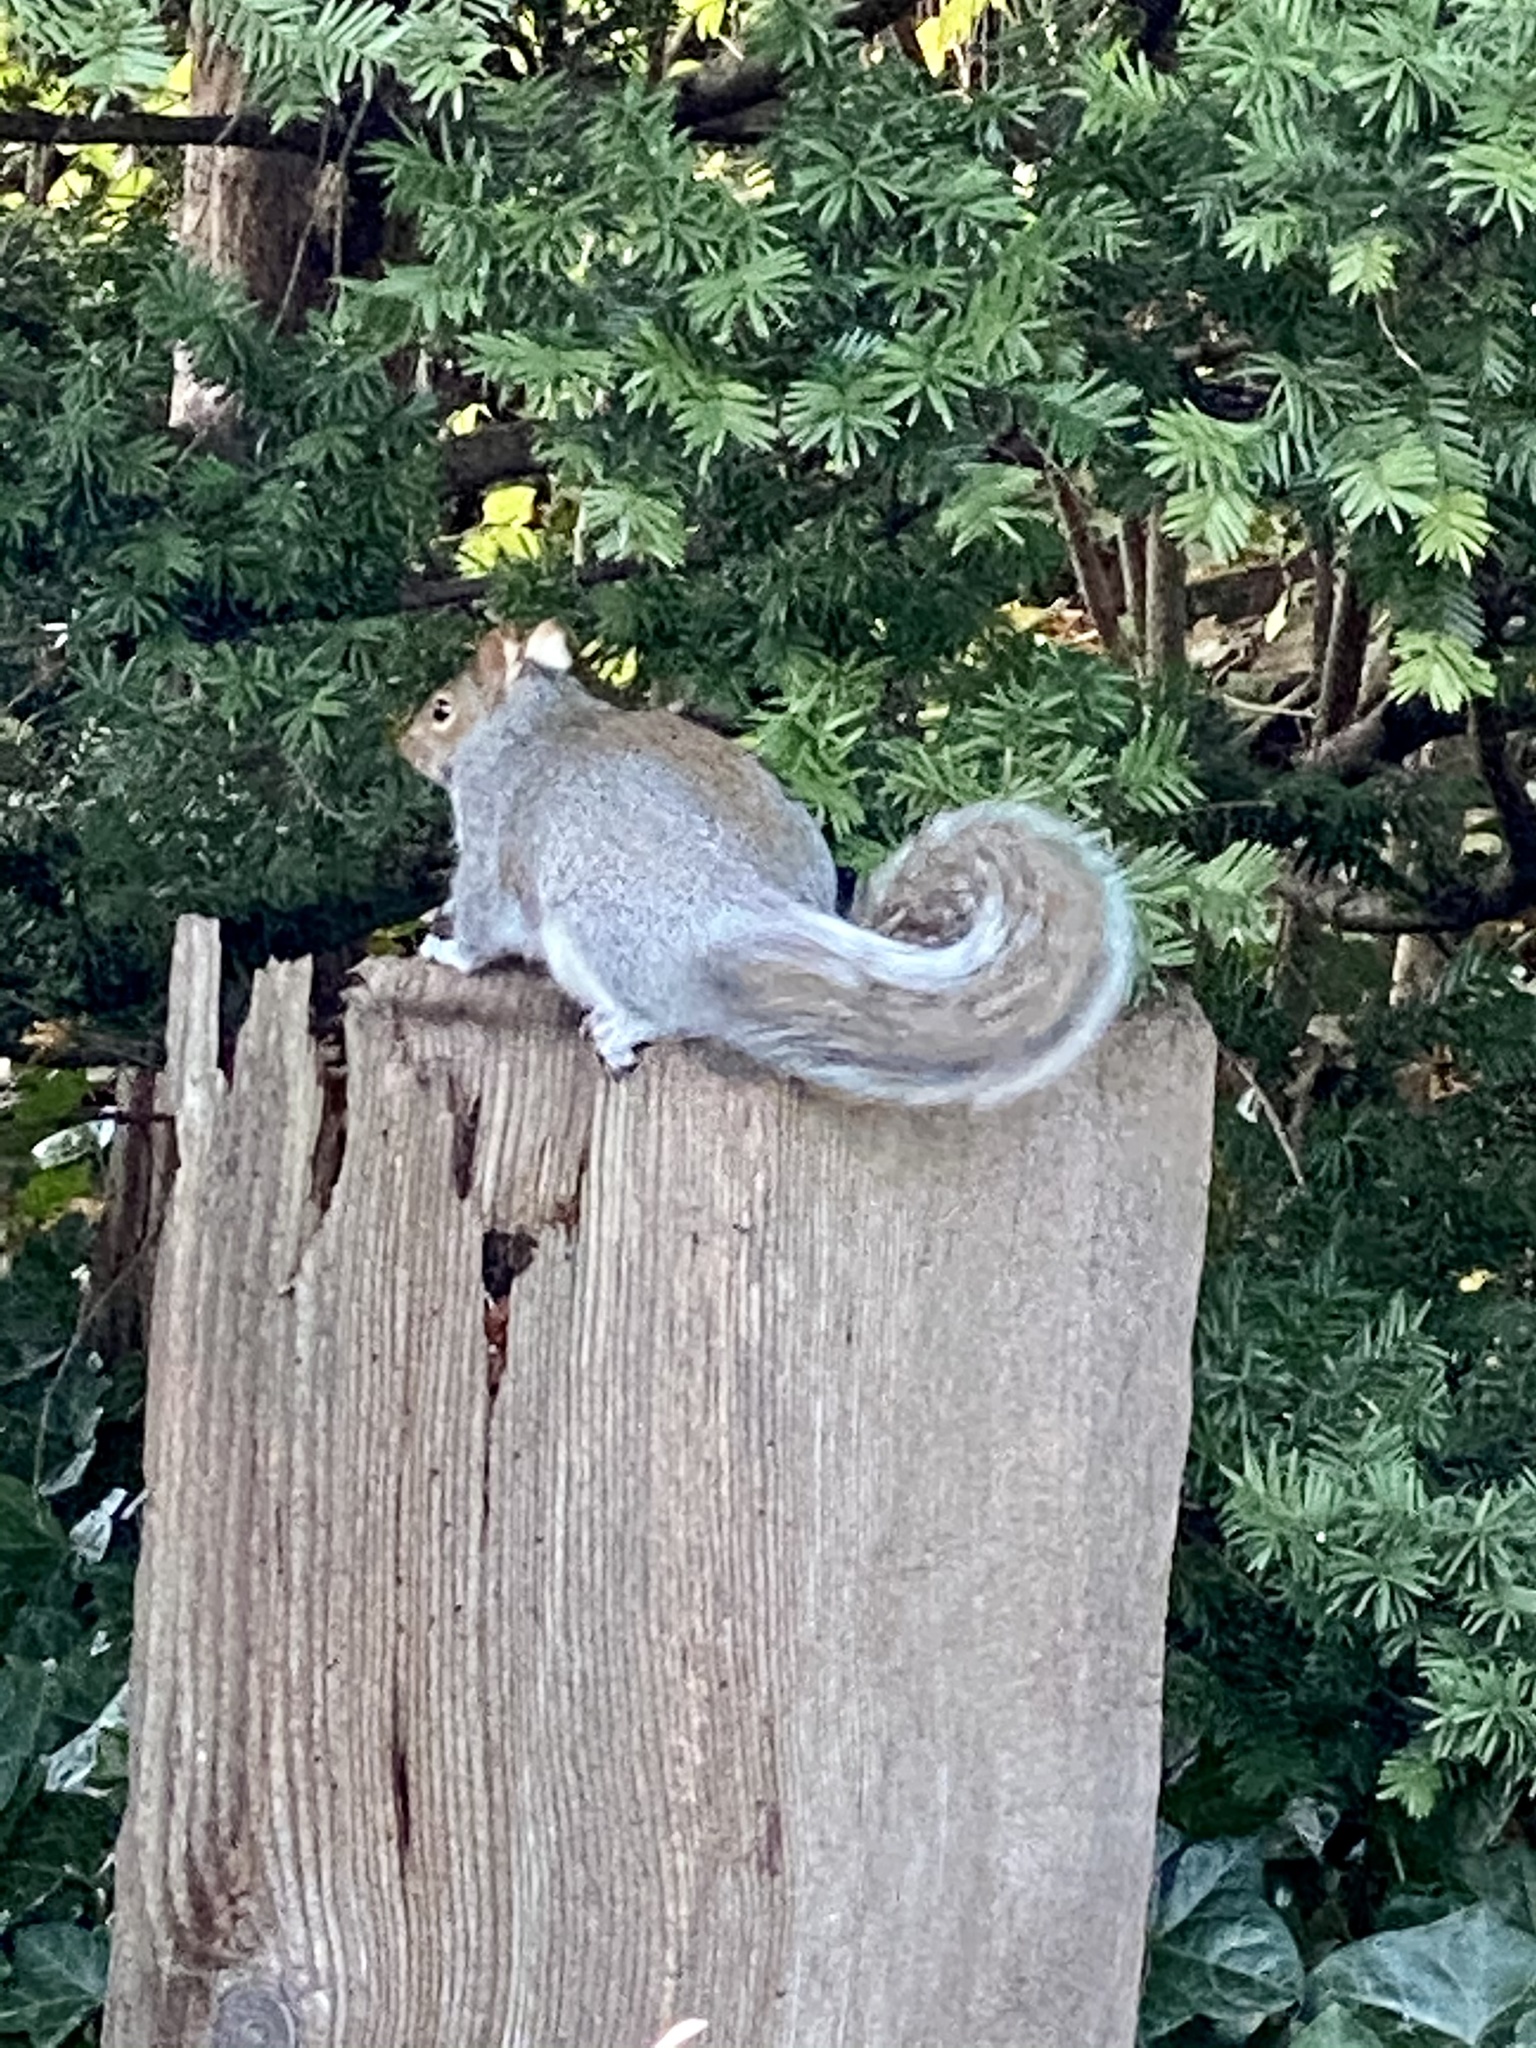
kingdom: Animalia
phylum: Chordata
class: Mammalia
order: Rodentia
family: Sciuridae
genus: Sciurus
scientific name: Sciurus carolinensis
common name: Eastern gray squirrel
